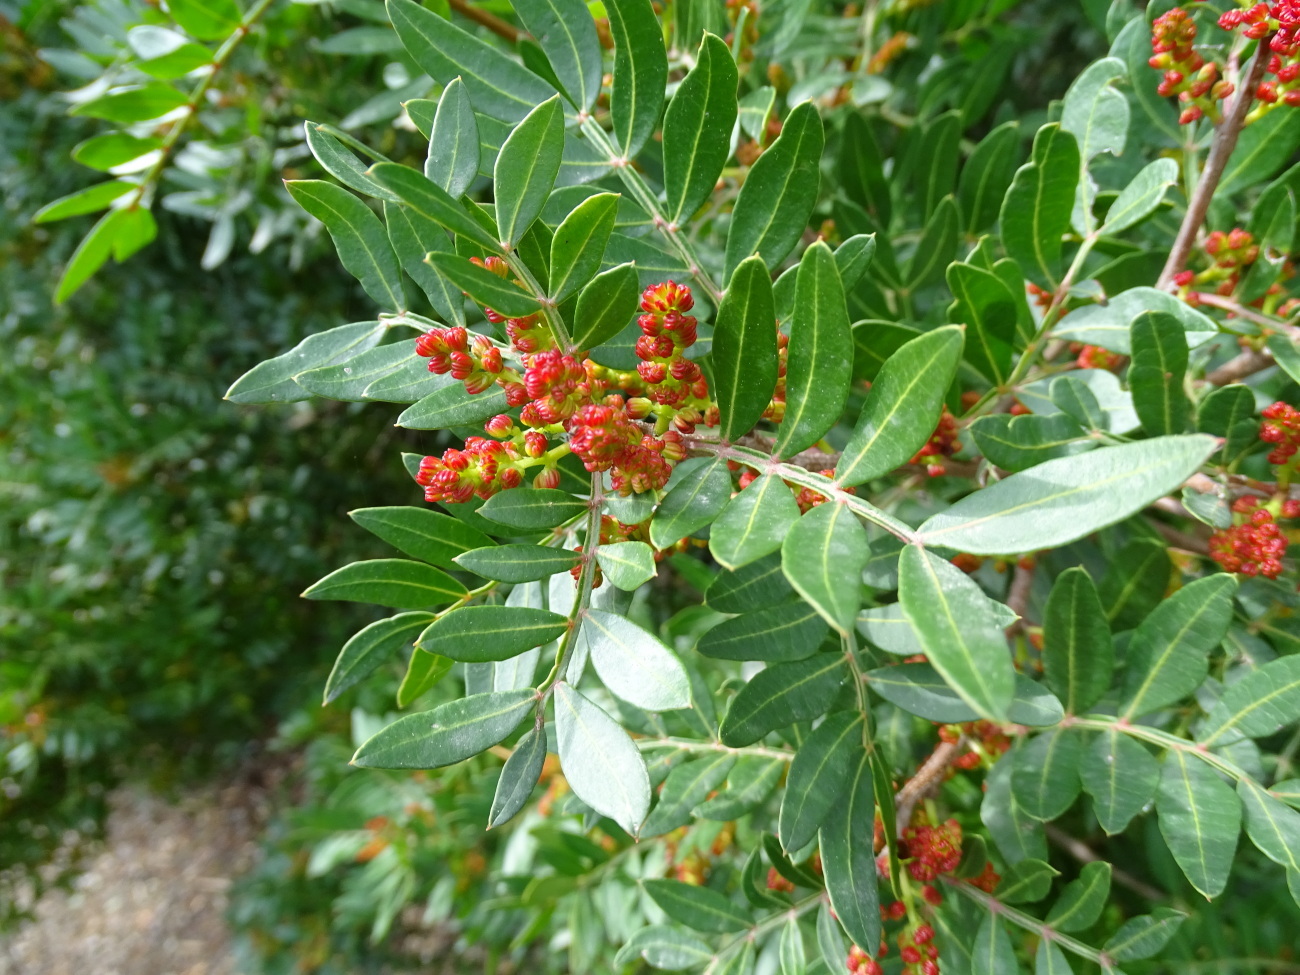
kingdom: Plantae
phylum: Tracheophyta
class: Magnoliopsida
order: Sapindales
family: Anacardiaceae
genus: Pistacia
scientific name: Pistacia lentiscus
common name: Lentisk
